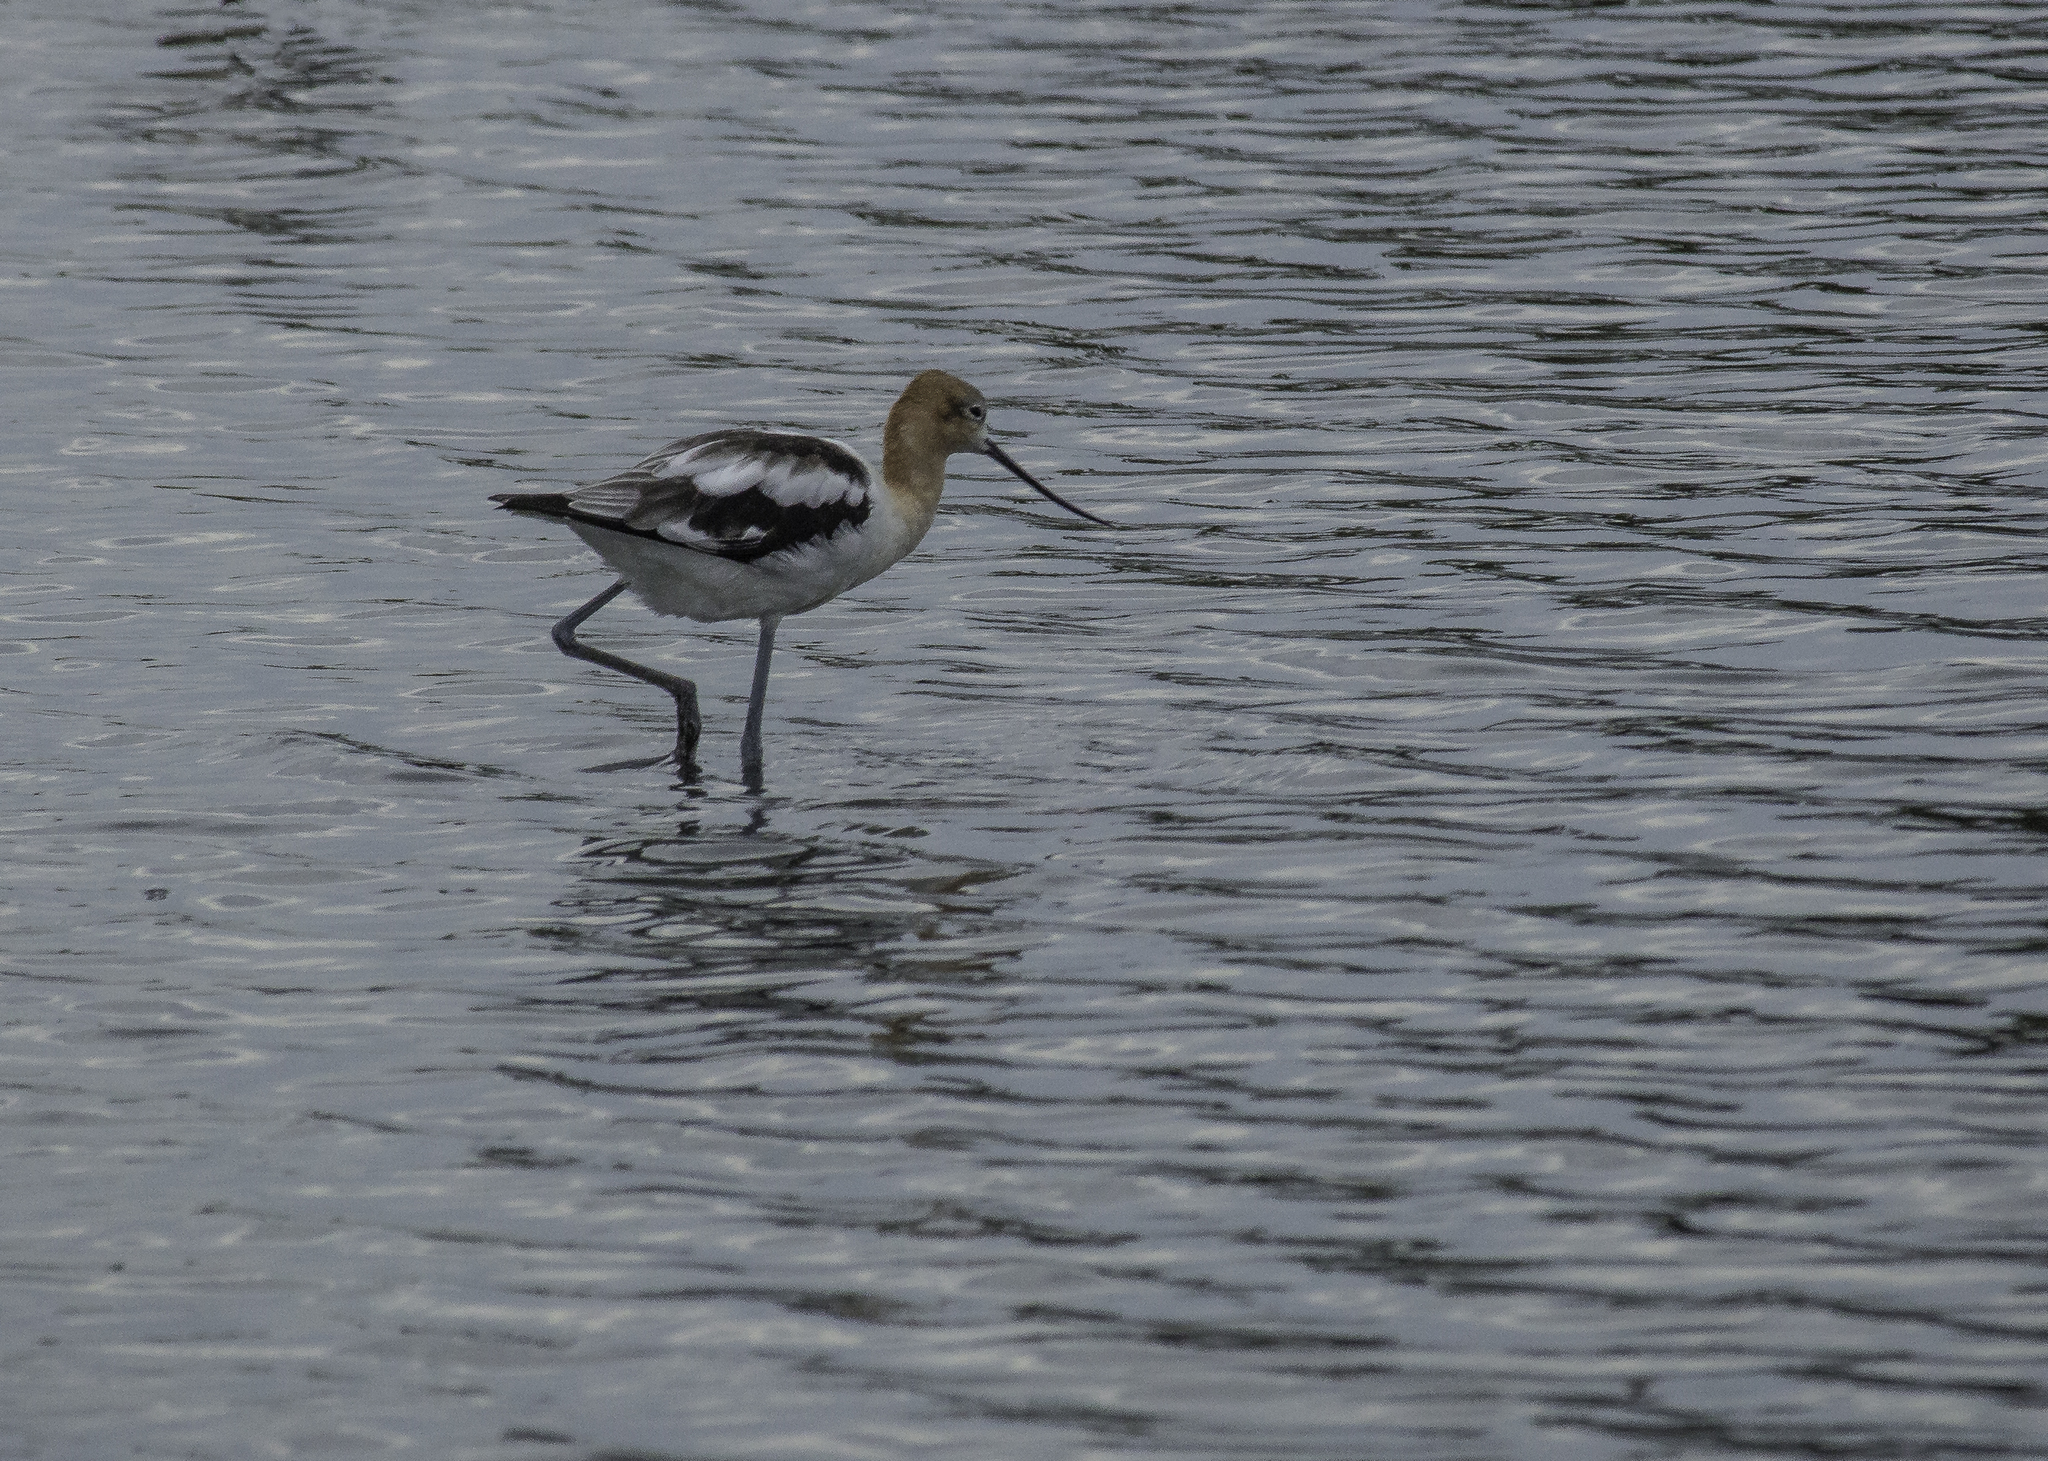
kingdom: Animalia
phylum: Chordata
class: Aves
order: Charadriiformes
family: Recurvirostridae
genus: Recurvirostra
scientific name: Recurvirostra americana
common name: American avocet
